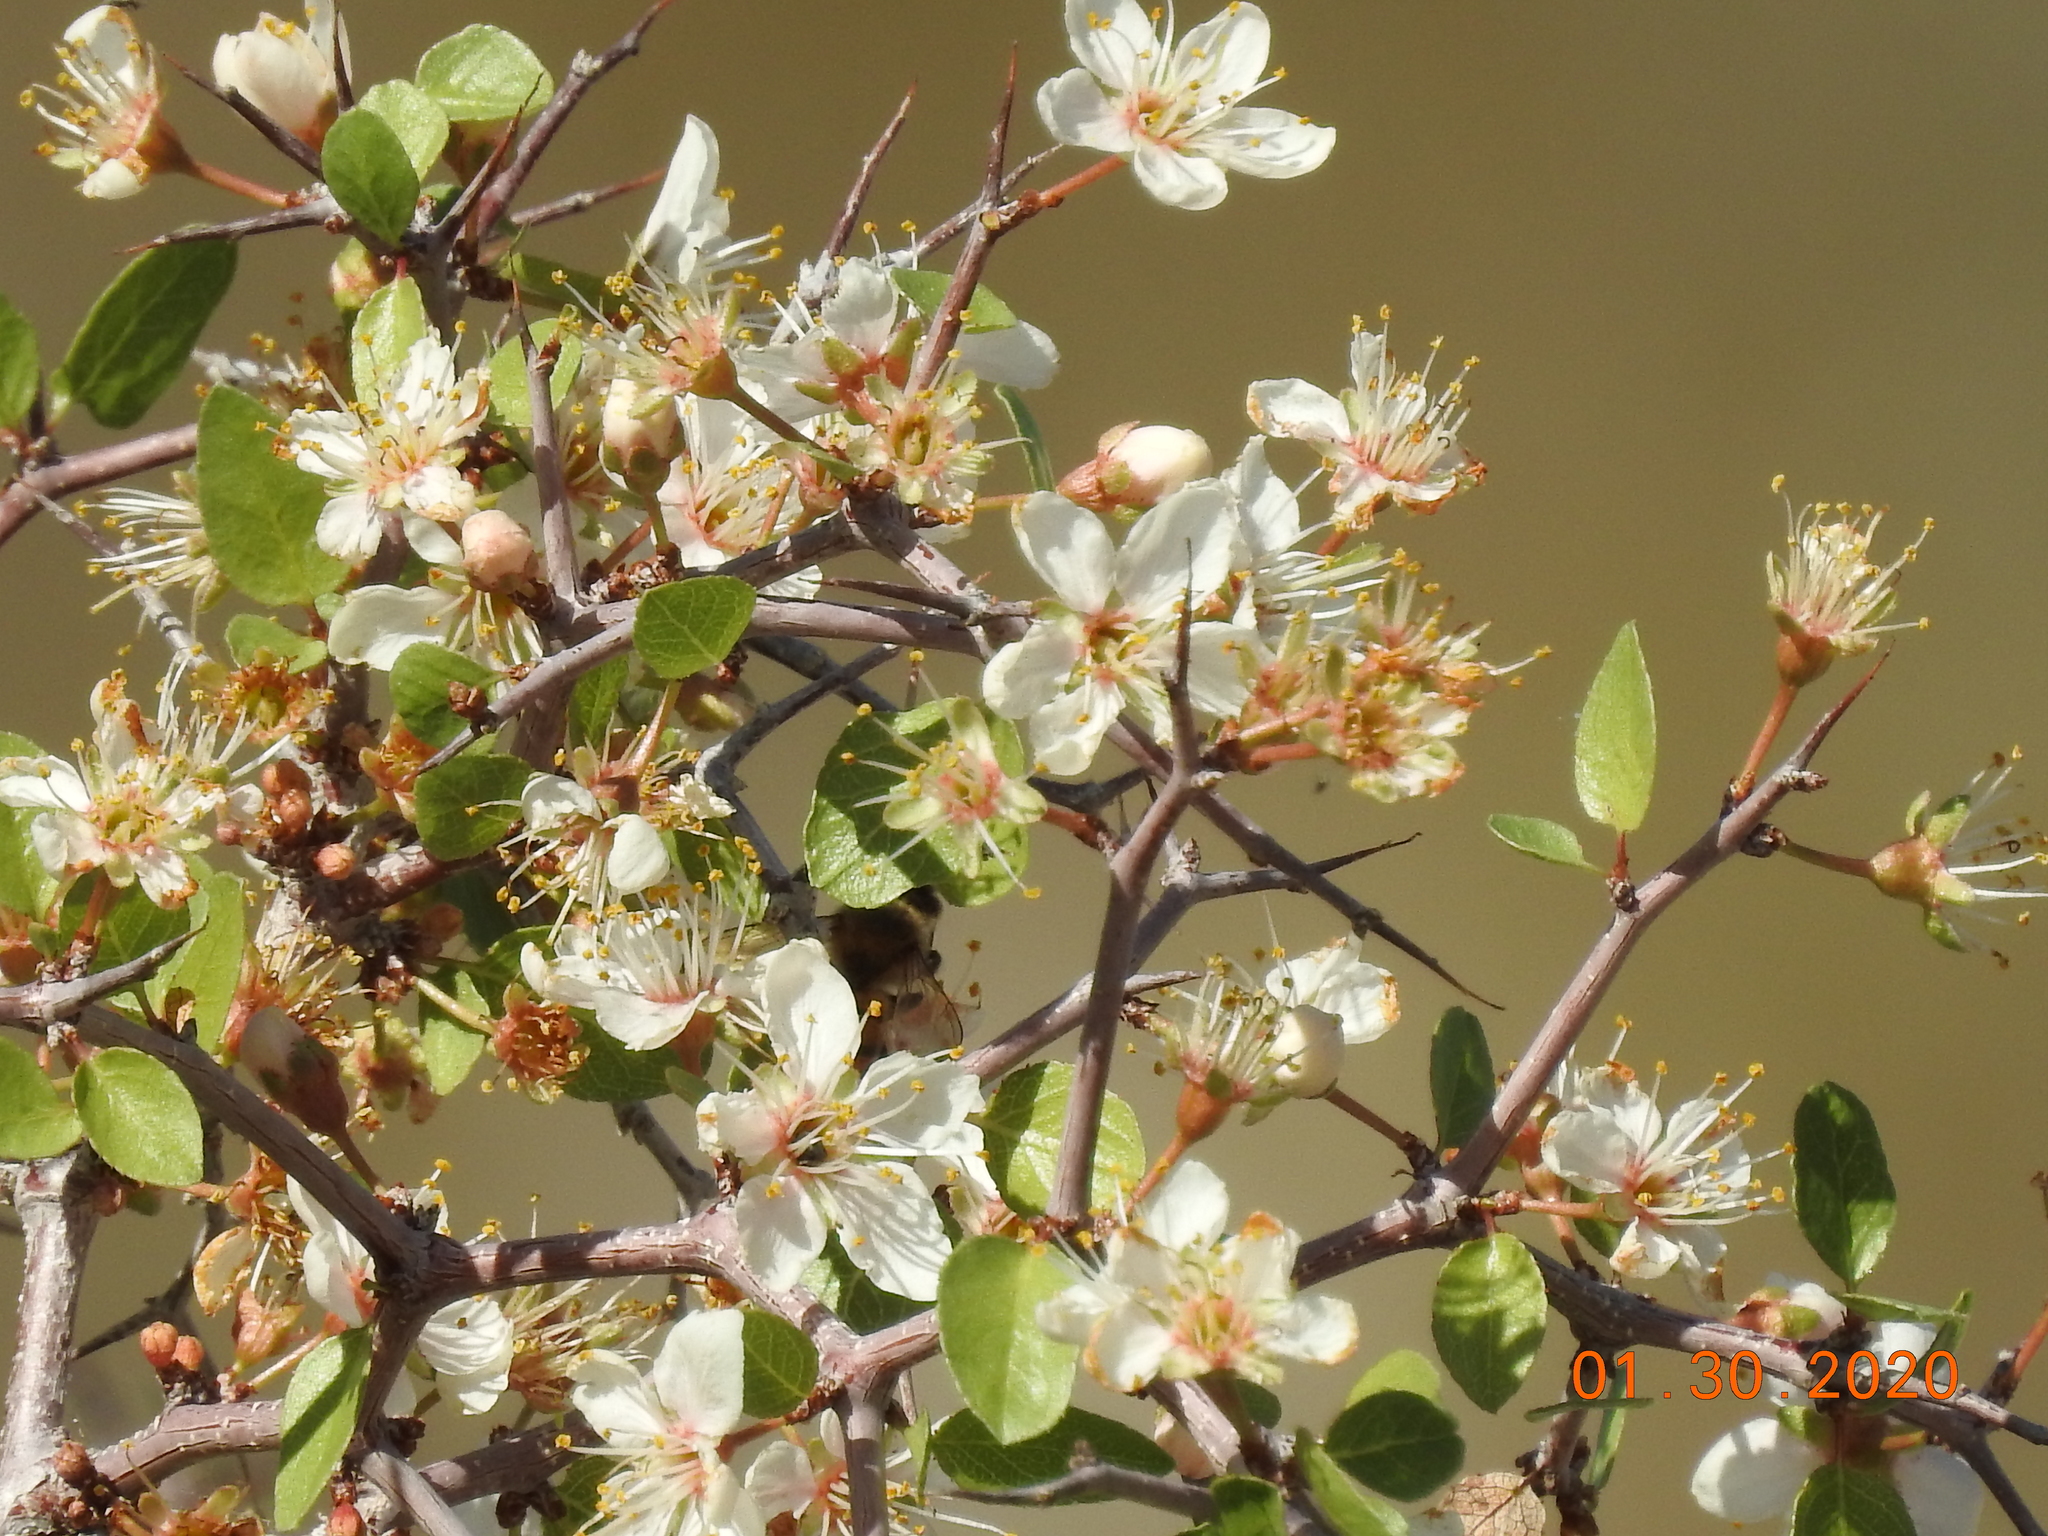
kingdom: Plantae
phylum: Tracheophyta
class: Magnoliopsida
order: Rosales
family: Rosaceae
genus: Prunus
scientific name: Prunus fremontii
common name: Desert apricot
